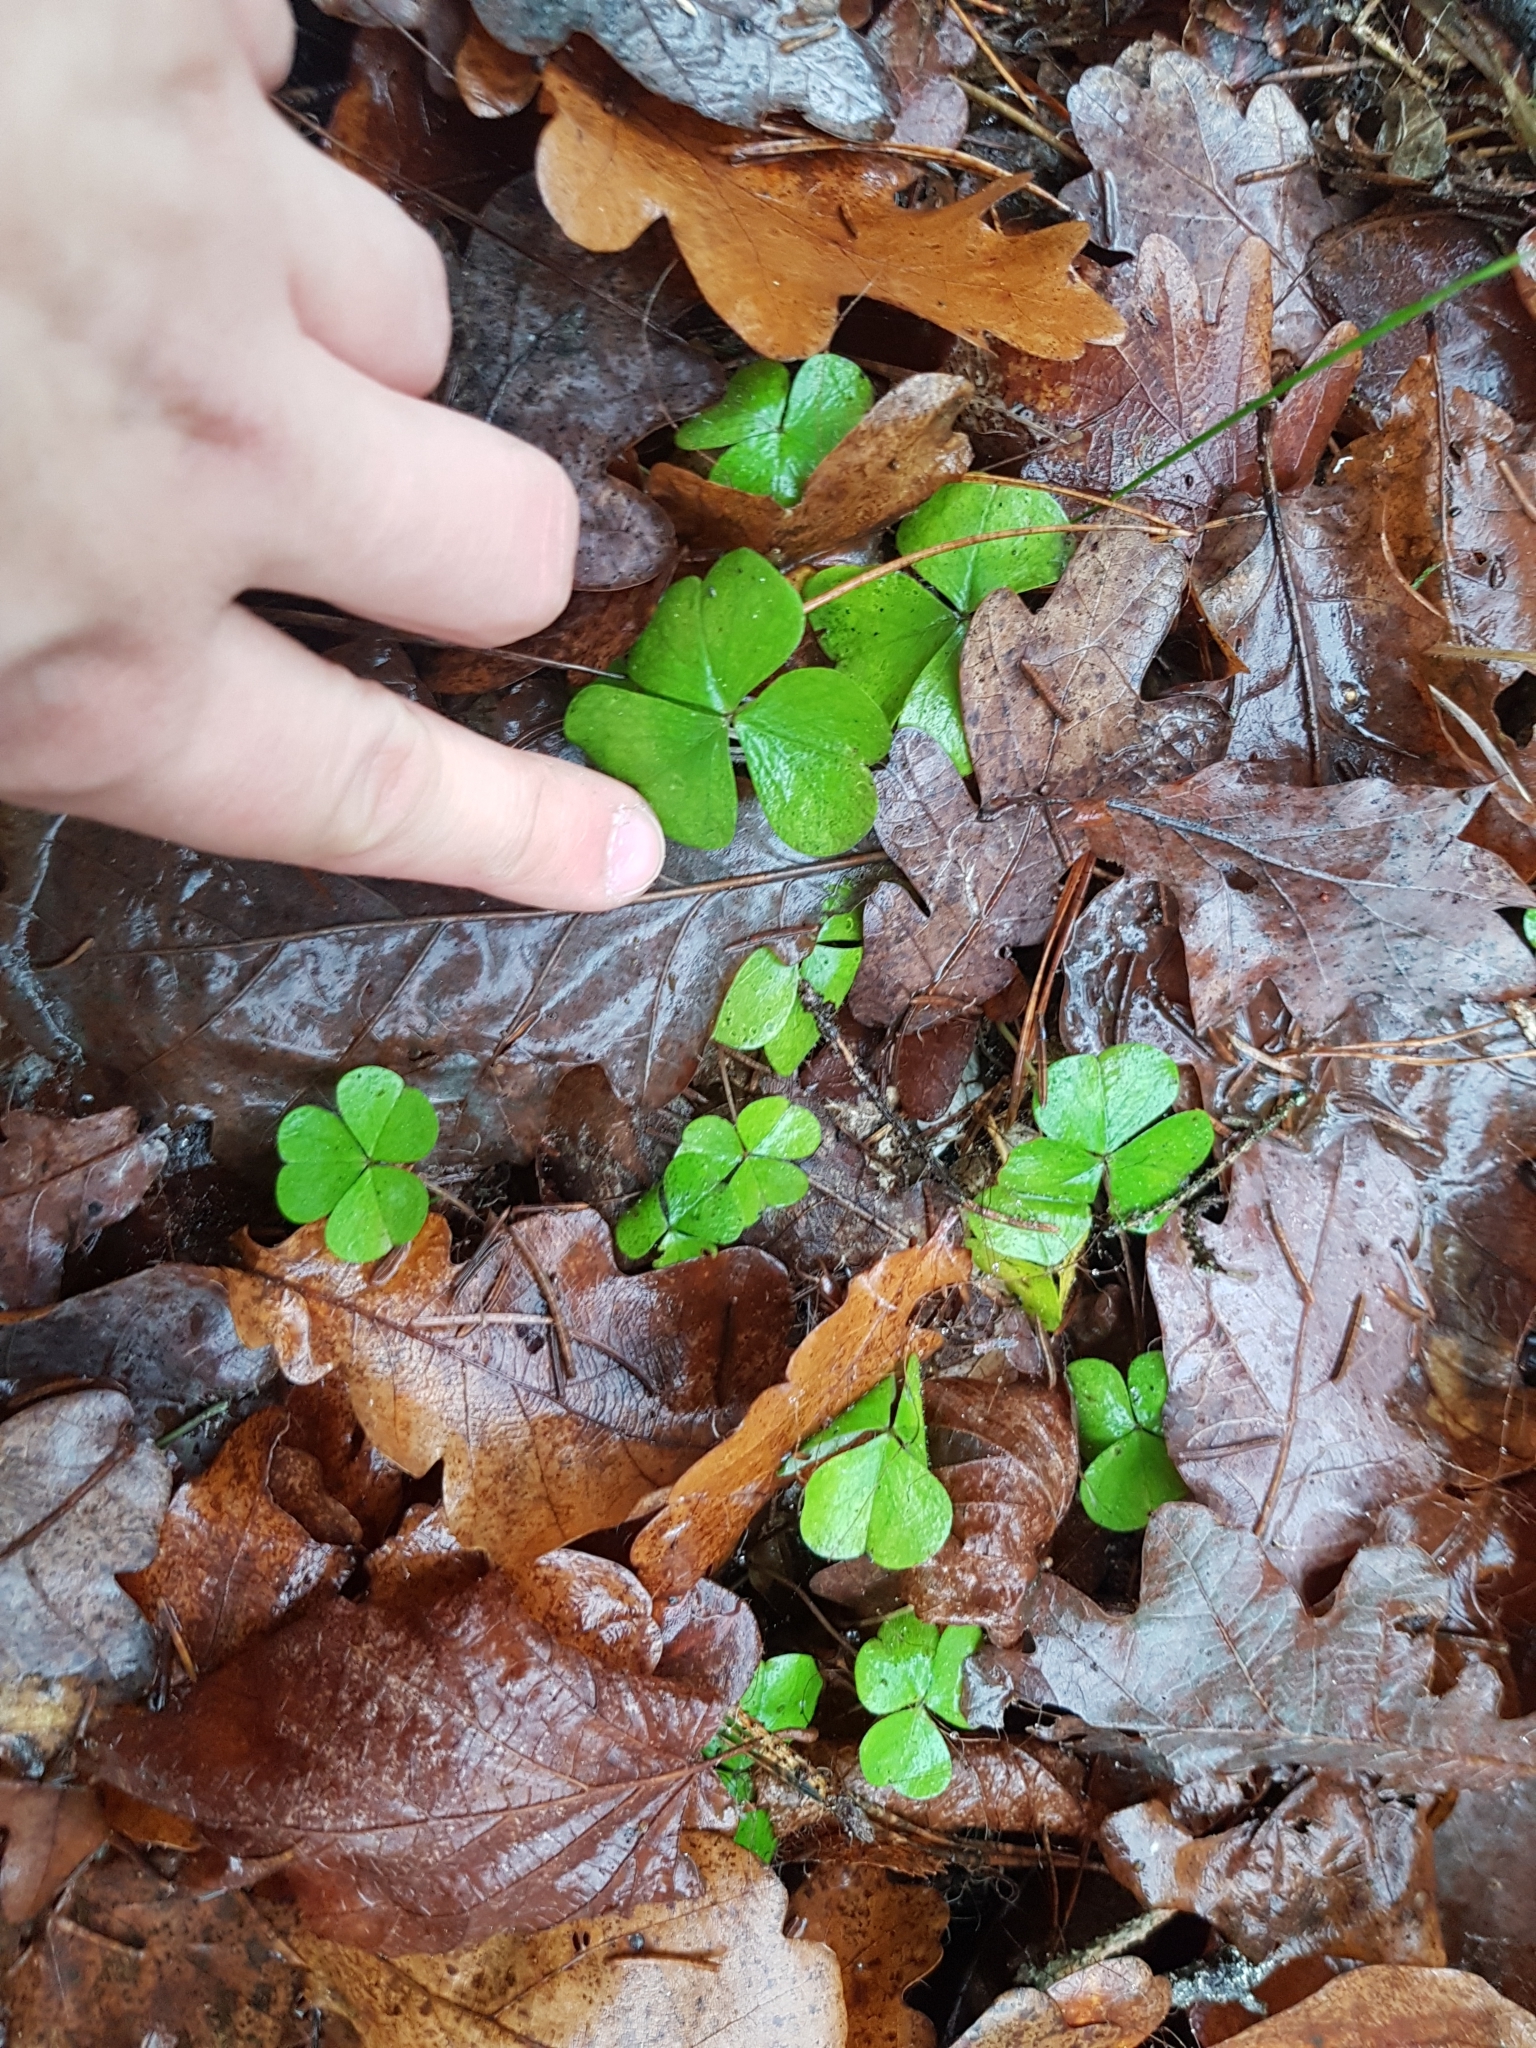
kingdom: Plantae
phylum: Tracheophyta
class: Magnoliopsida
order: Oxalidales
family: Oxalidaceae
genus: Oxalis
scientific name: Oxalis acetosella
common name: Wood-sorrel
